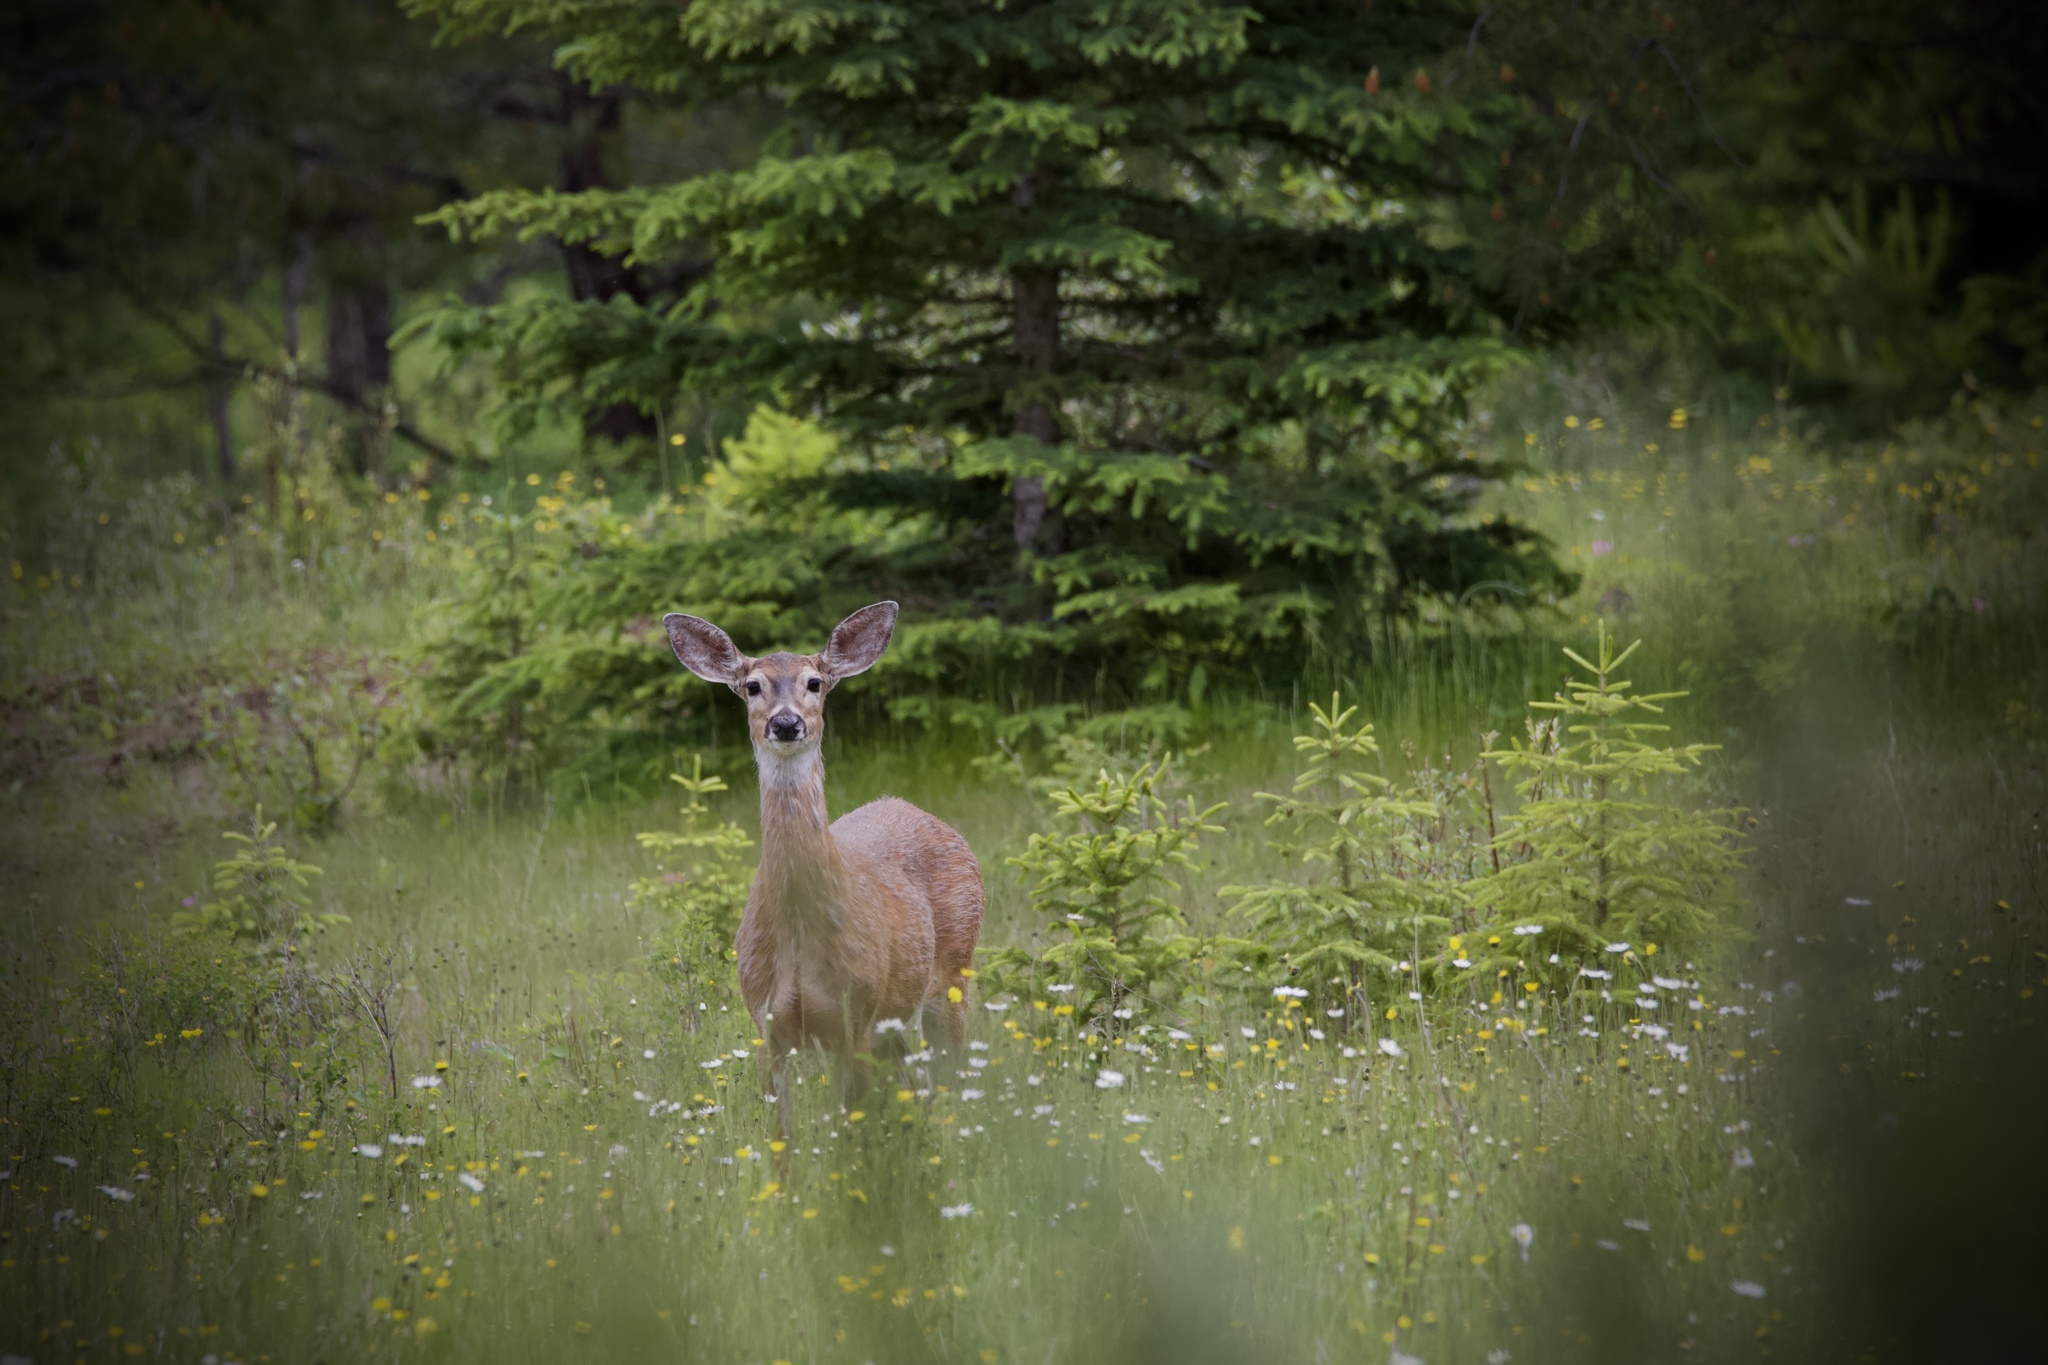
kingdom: Animalia
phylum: Chordata
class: Mammalia
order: Artiodactyla
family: Cervidae
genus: Odocoileus
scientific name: Odocoileus virginianus
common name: White-tailed deer
